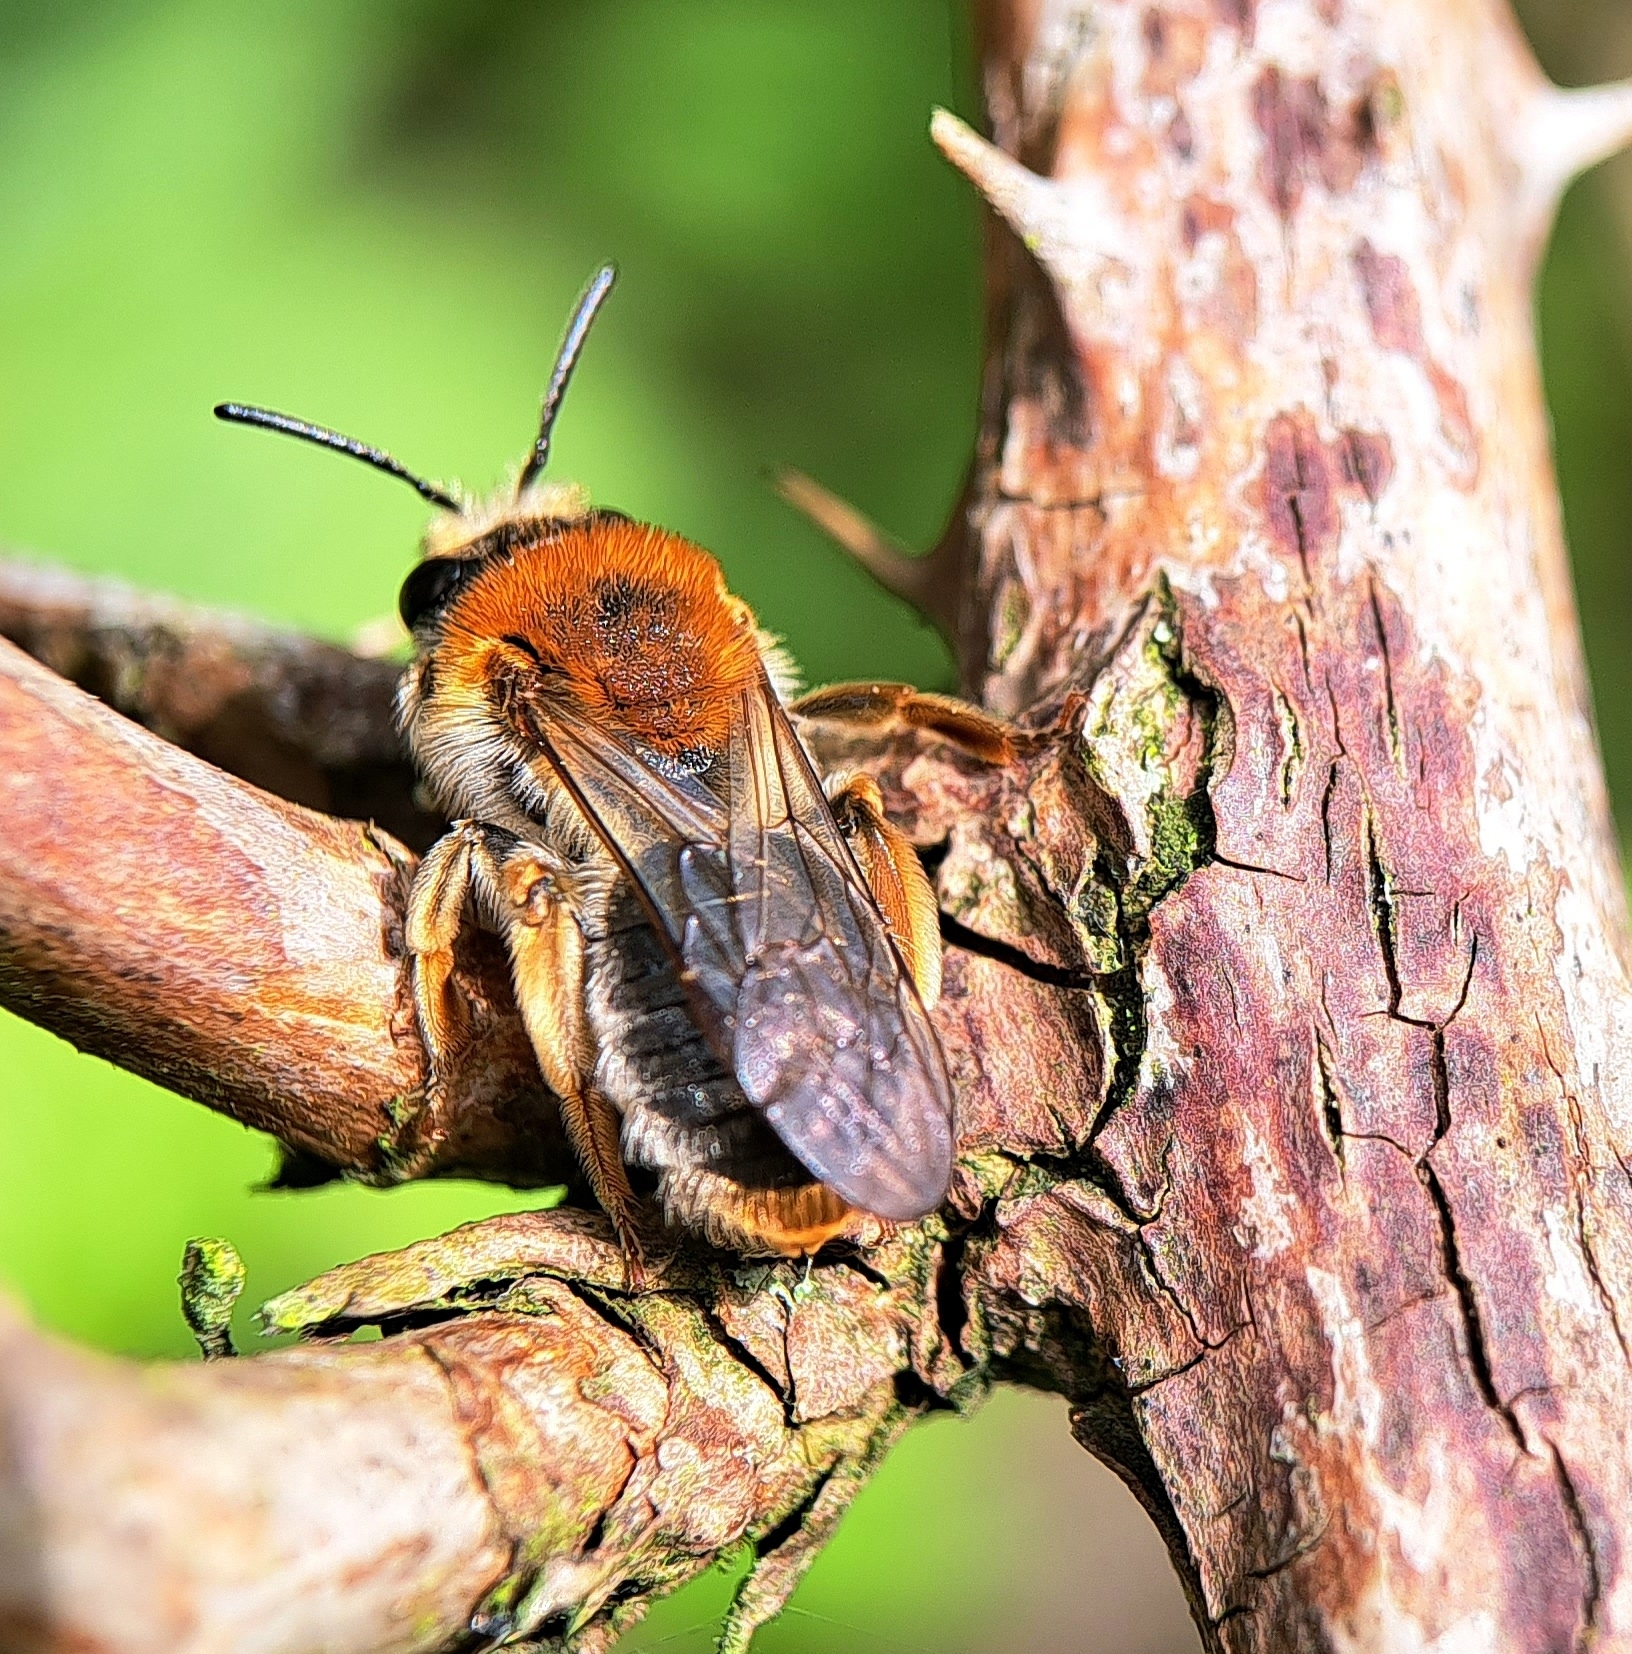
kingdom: Animalia
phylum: Arthropoda
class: Insecta
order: Hymenoptera
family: Andrenidae
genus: Andrena
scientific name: Andrena haemorrhoa
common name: Early mining bee
